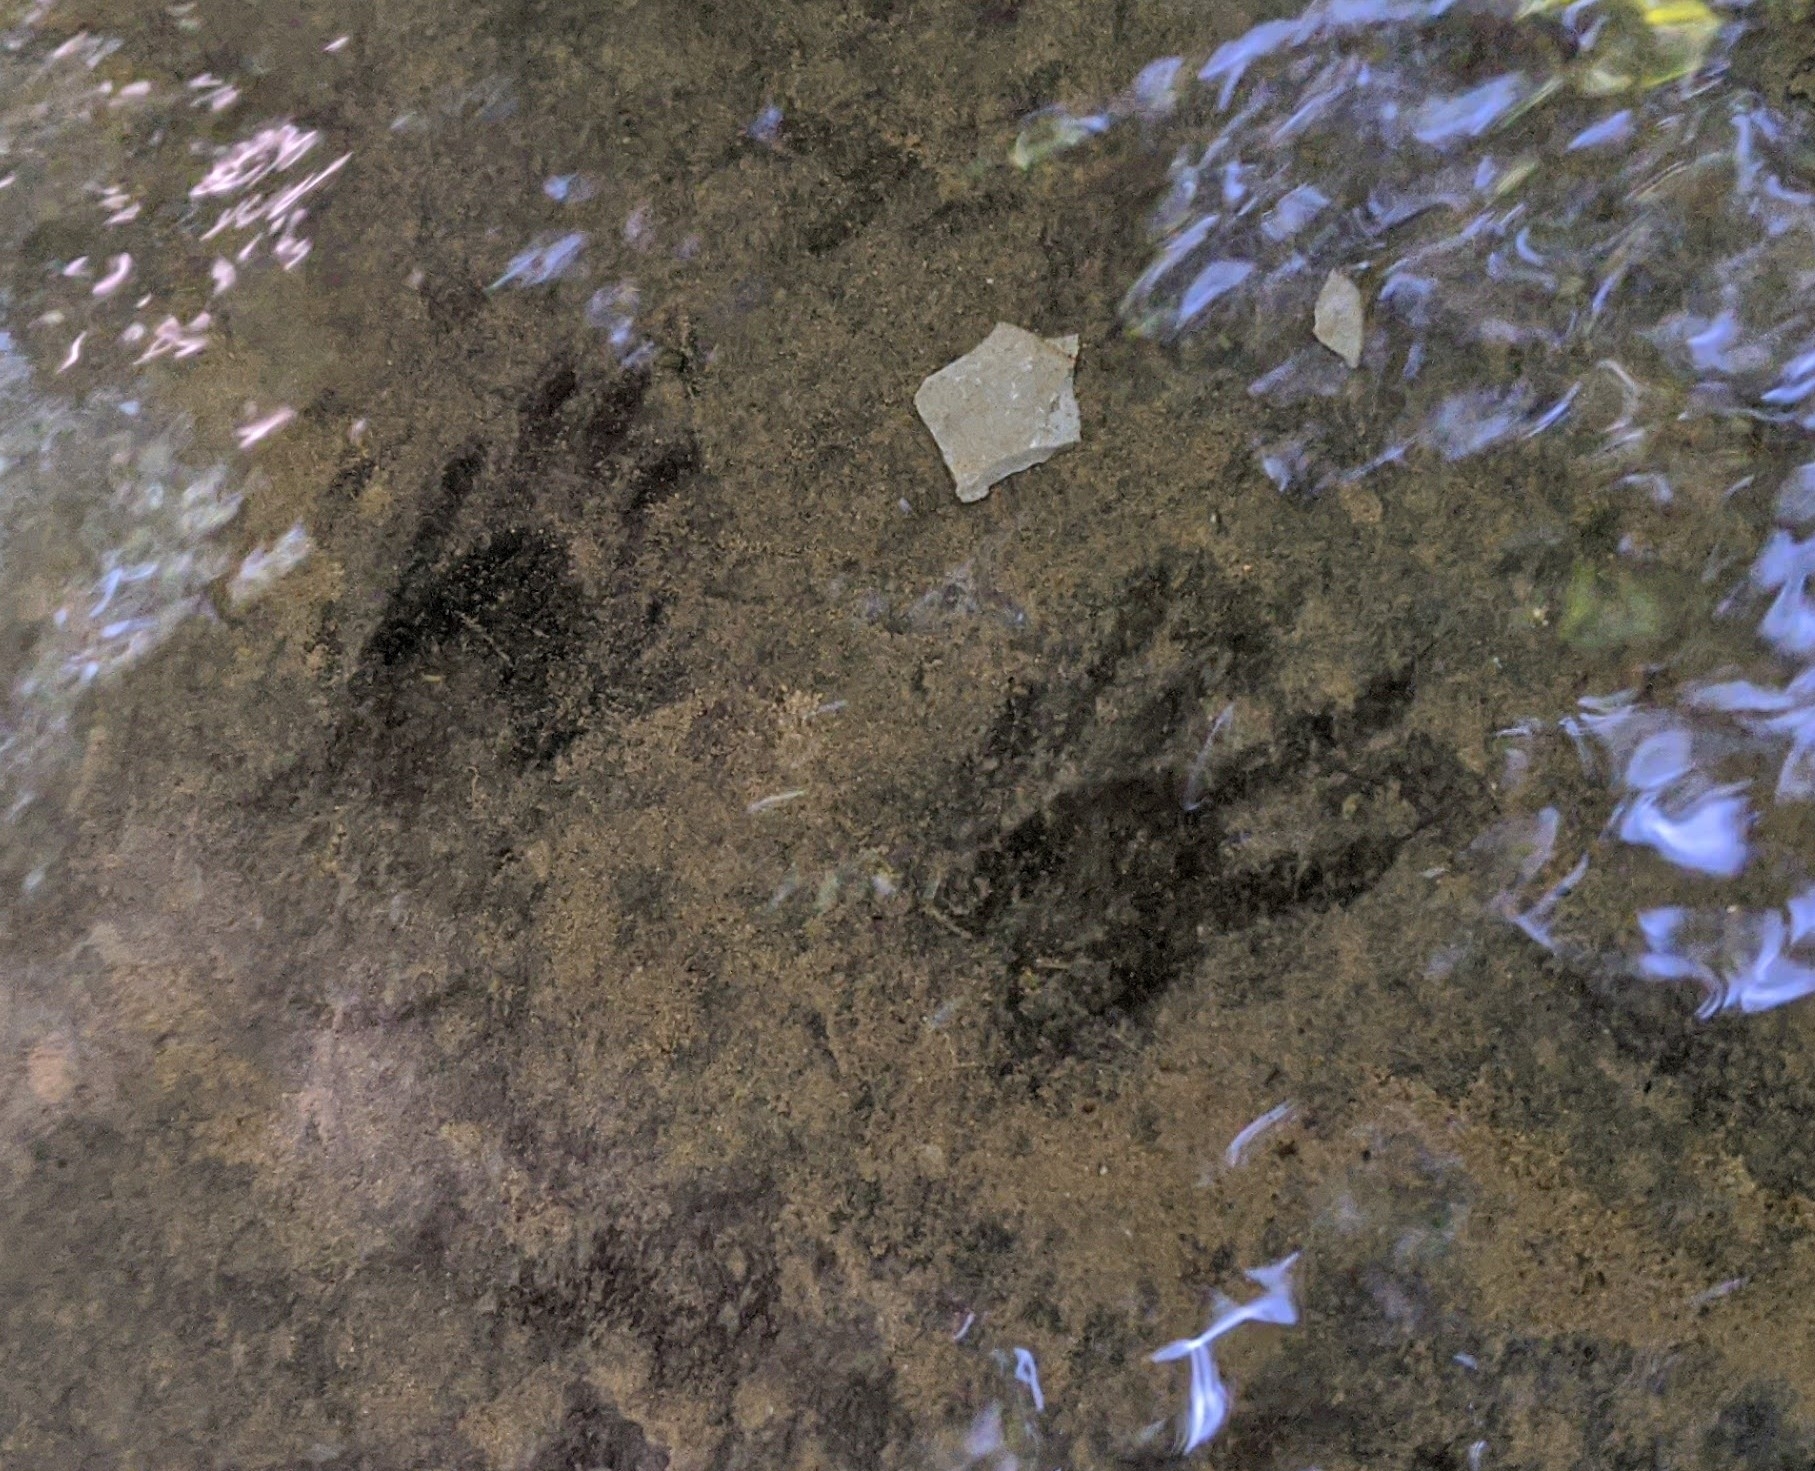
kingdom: Animalia
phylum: Chordata
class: Mammalia
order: Carnivora
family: Procyonidae
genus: Procyon
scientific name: Procyon lotor
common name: Raccoon
